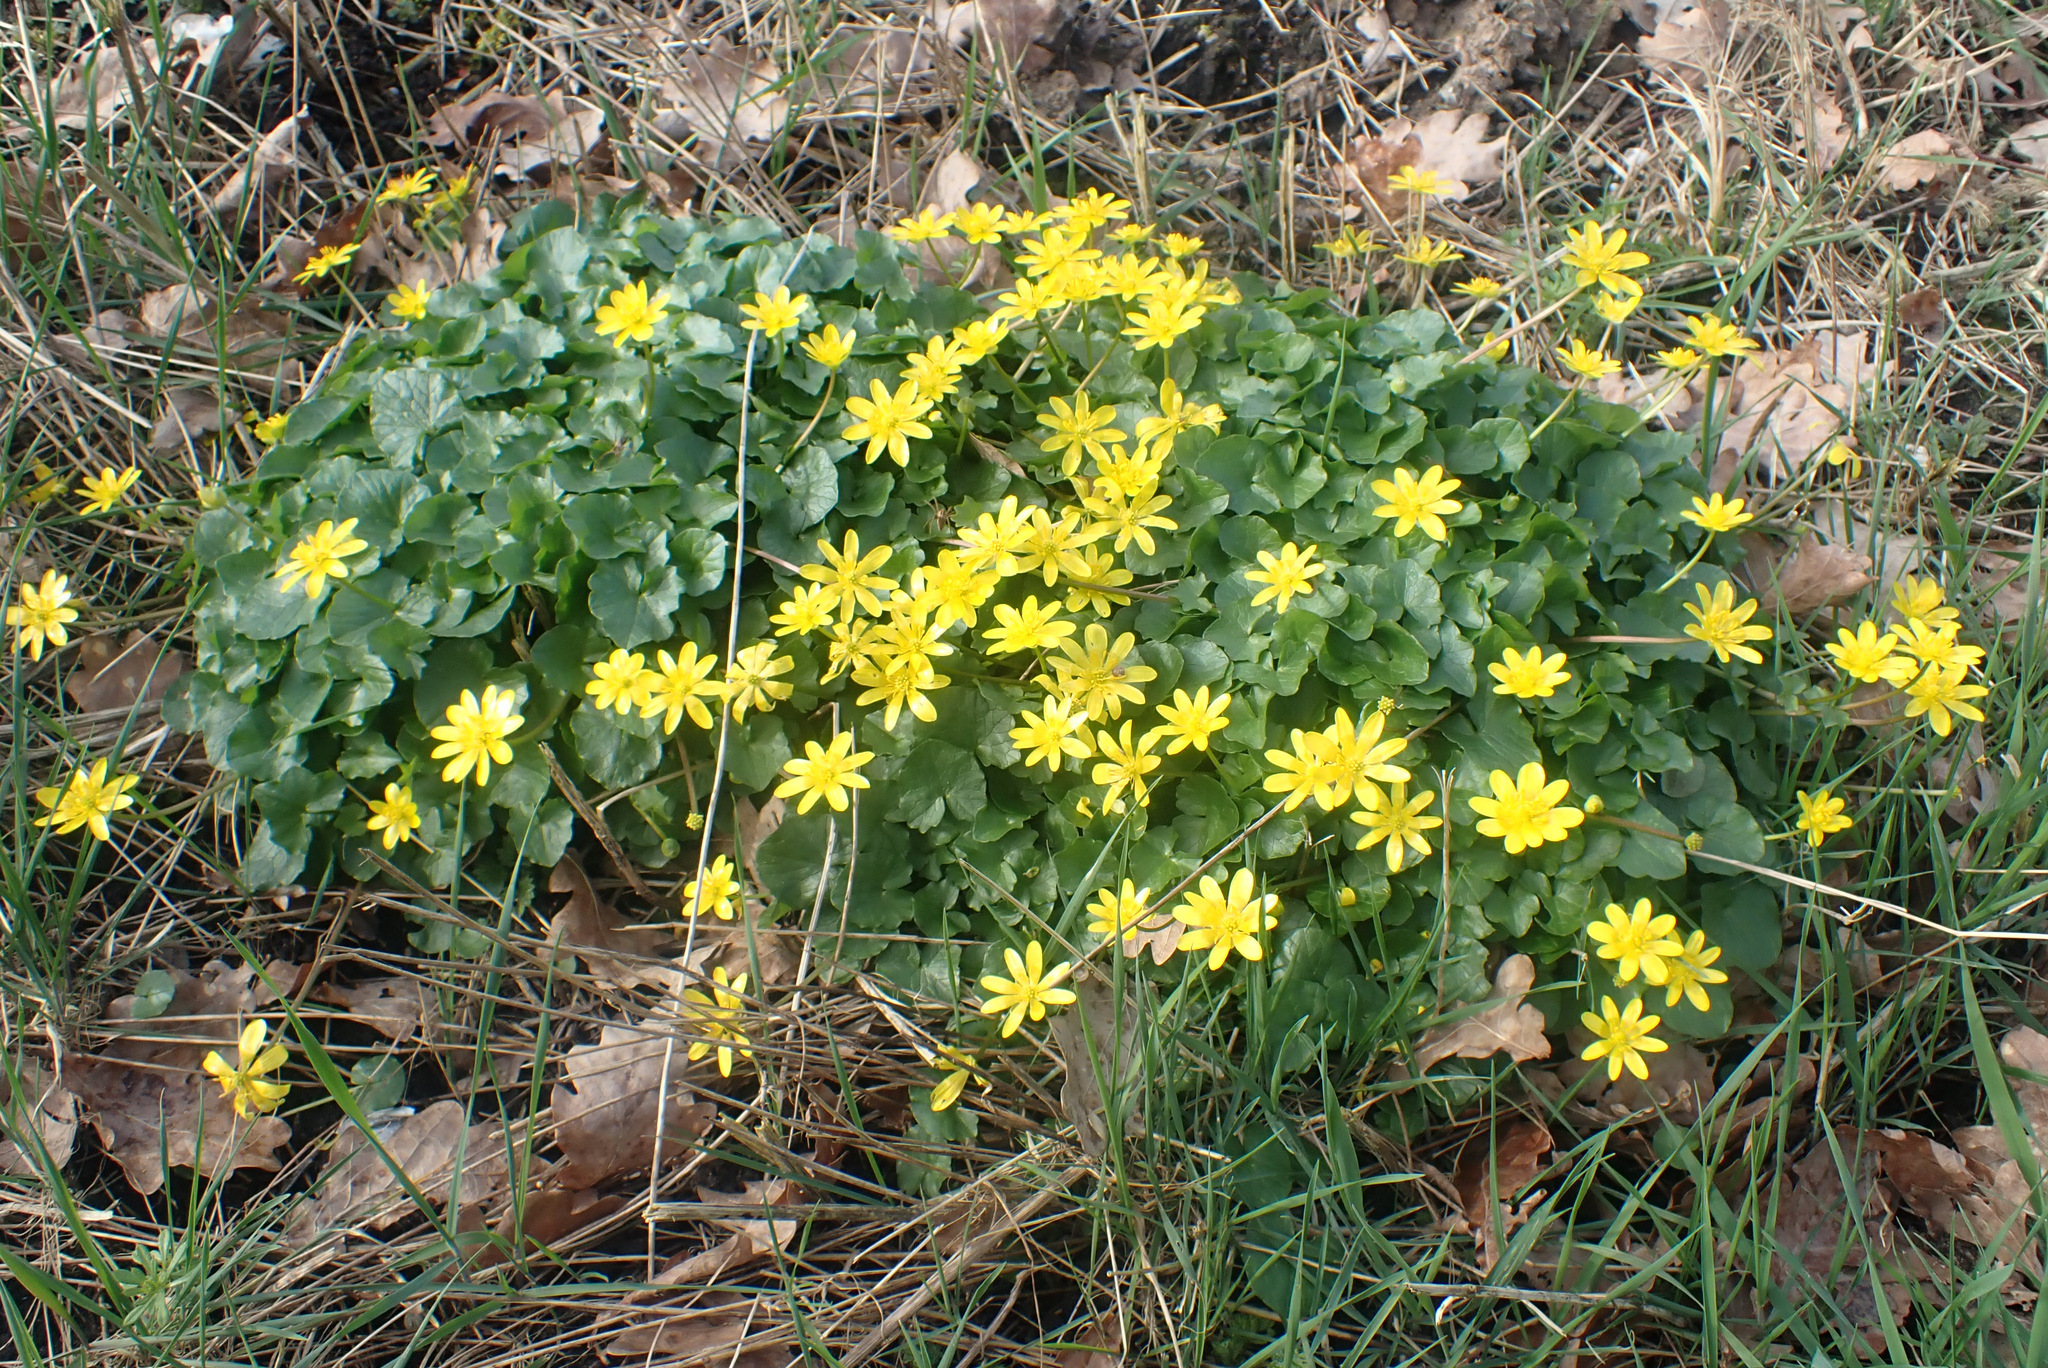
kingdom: Plantae
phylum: Tracheophyta
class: Magnoliopsida
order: Ranunculales
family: Ranunculaceae
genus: Ficaria
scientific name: Ficaria verna
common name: Lesser celandine
